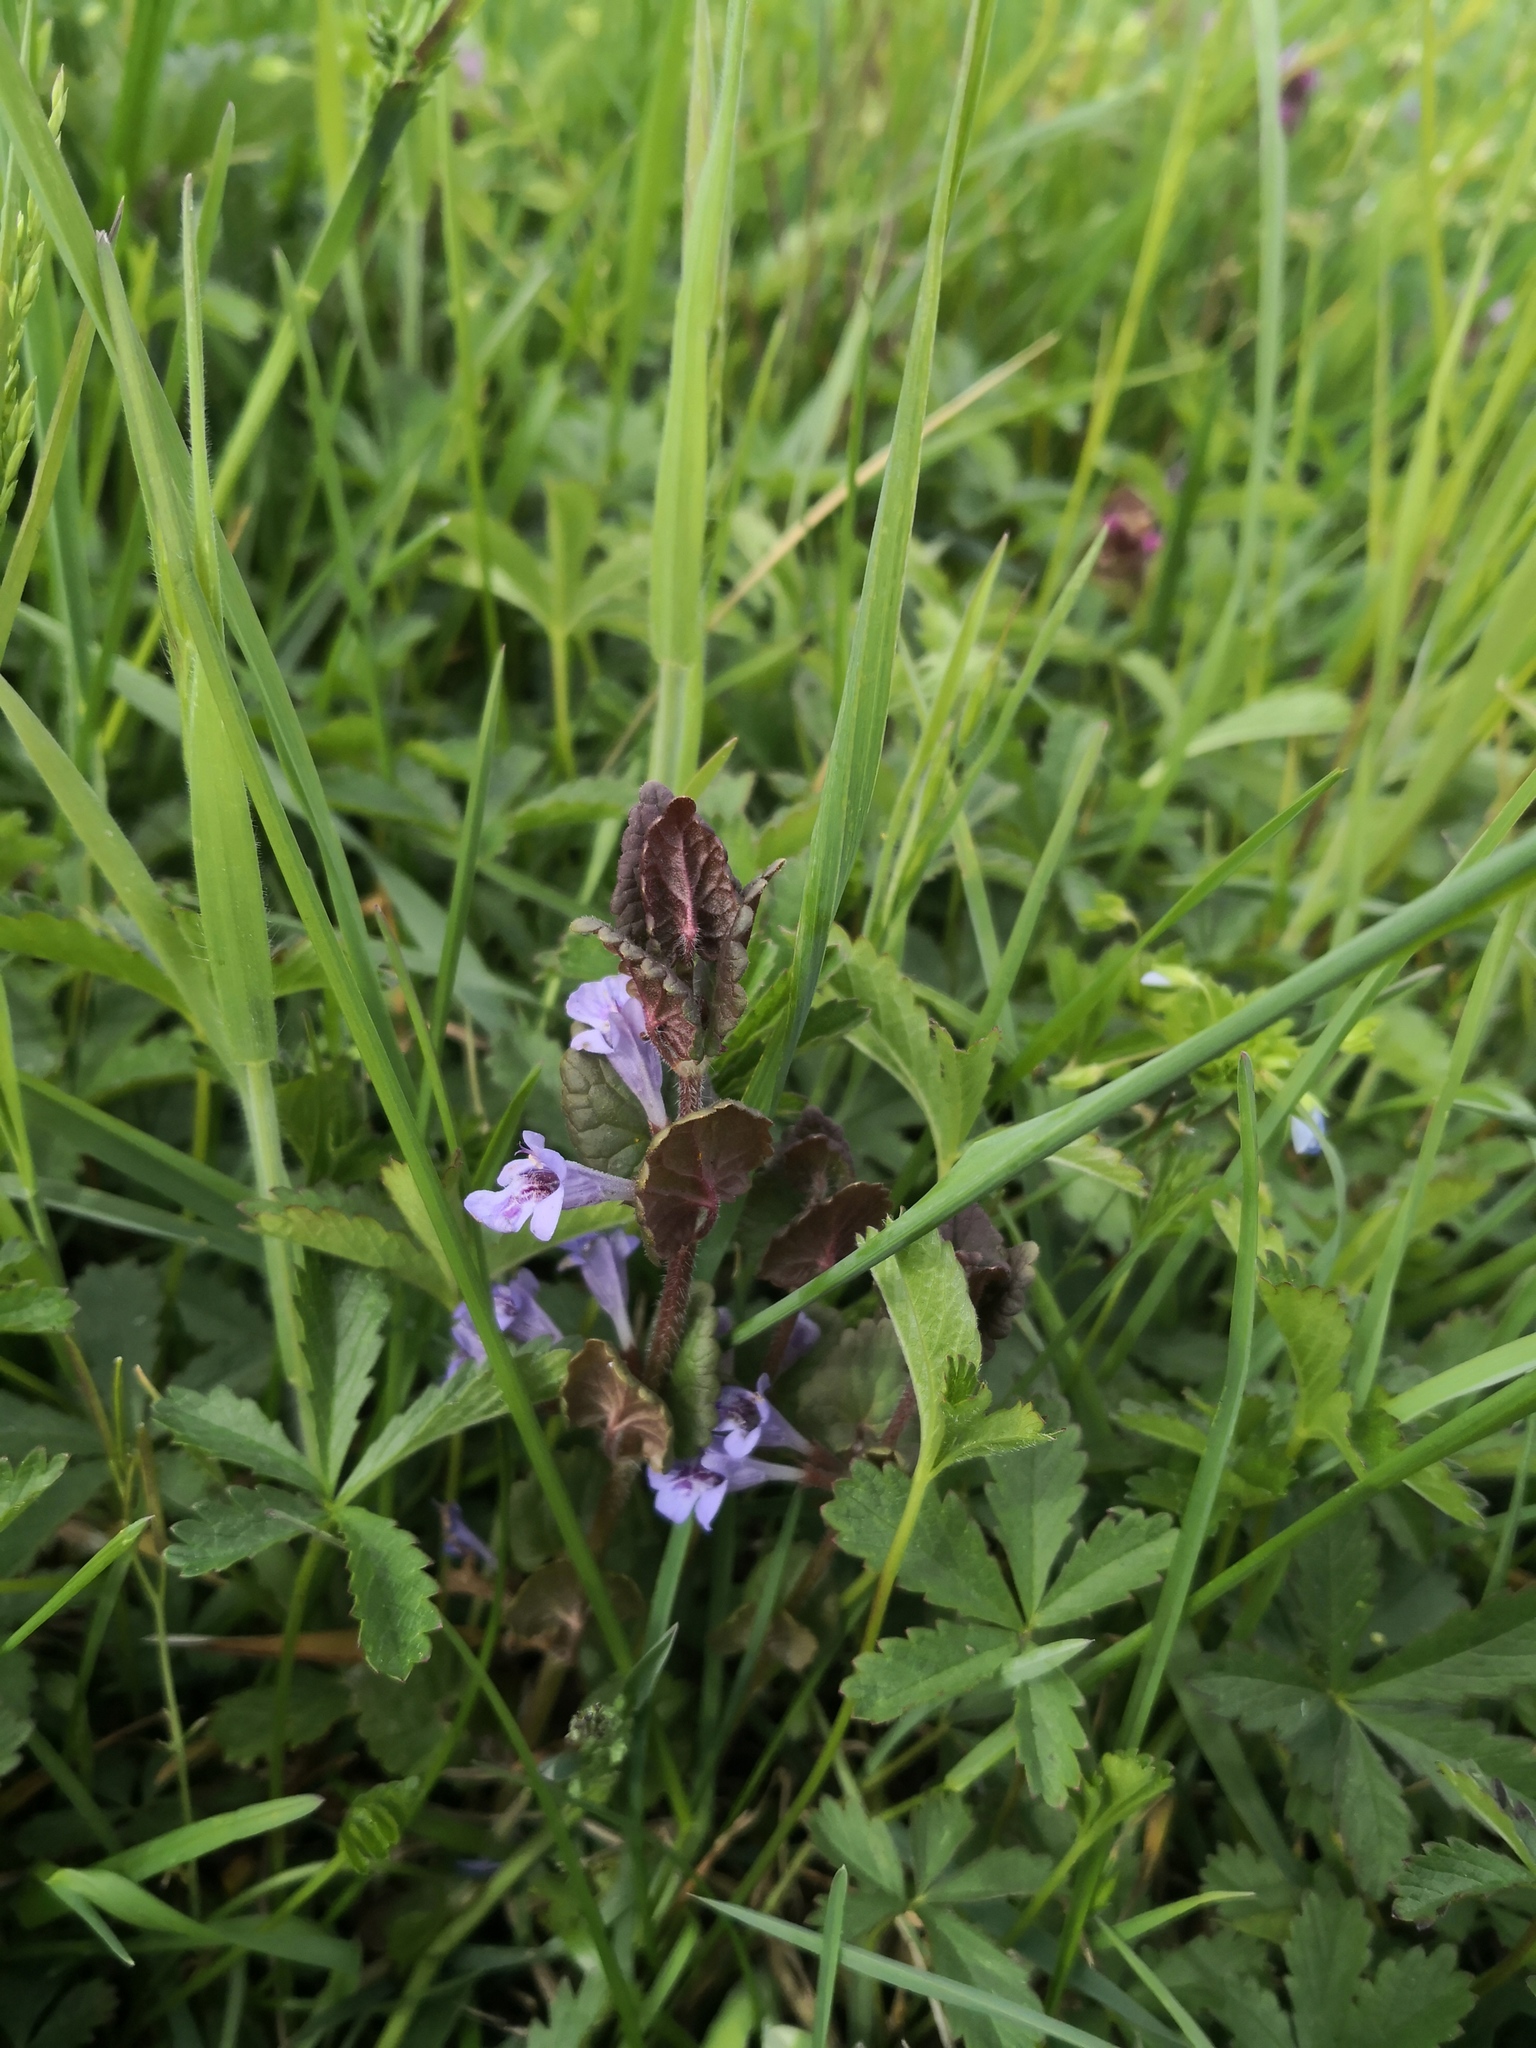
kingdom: Plantae
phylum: Tracheophyta
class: Magnoliopsida
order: Lamiales
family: Lamiaceae
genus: Glechoma
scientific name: Glechoma hederacea
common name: Ground ivy
